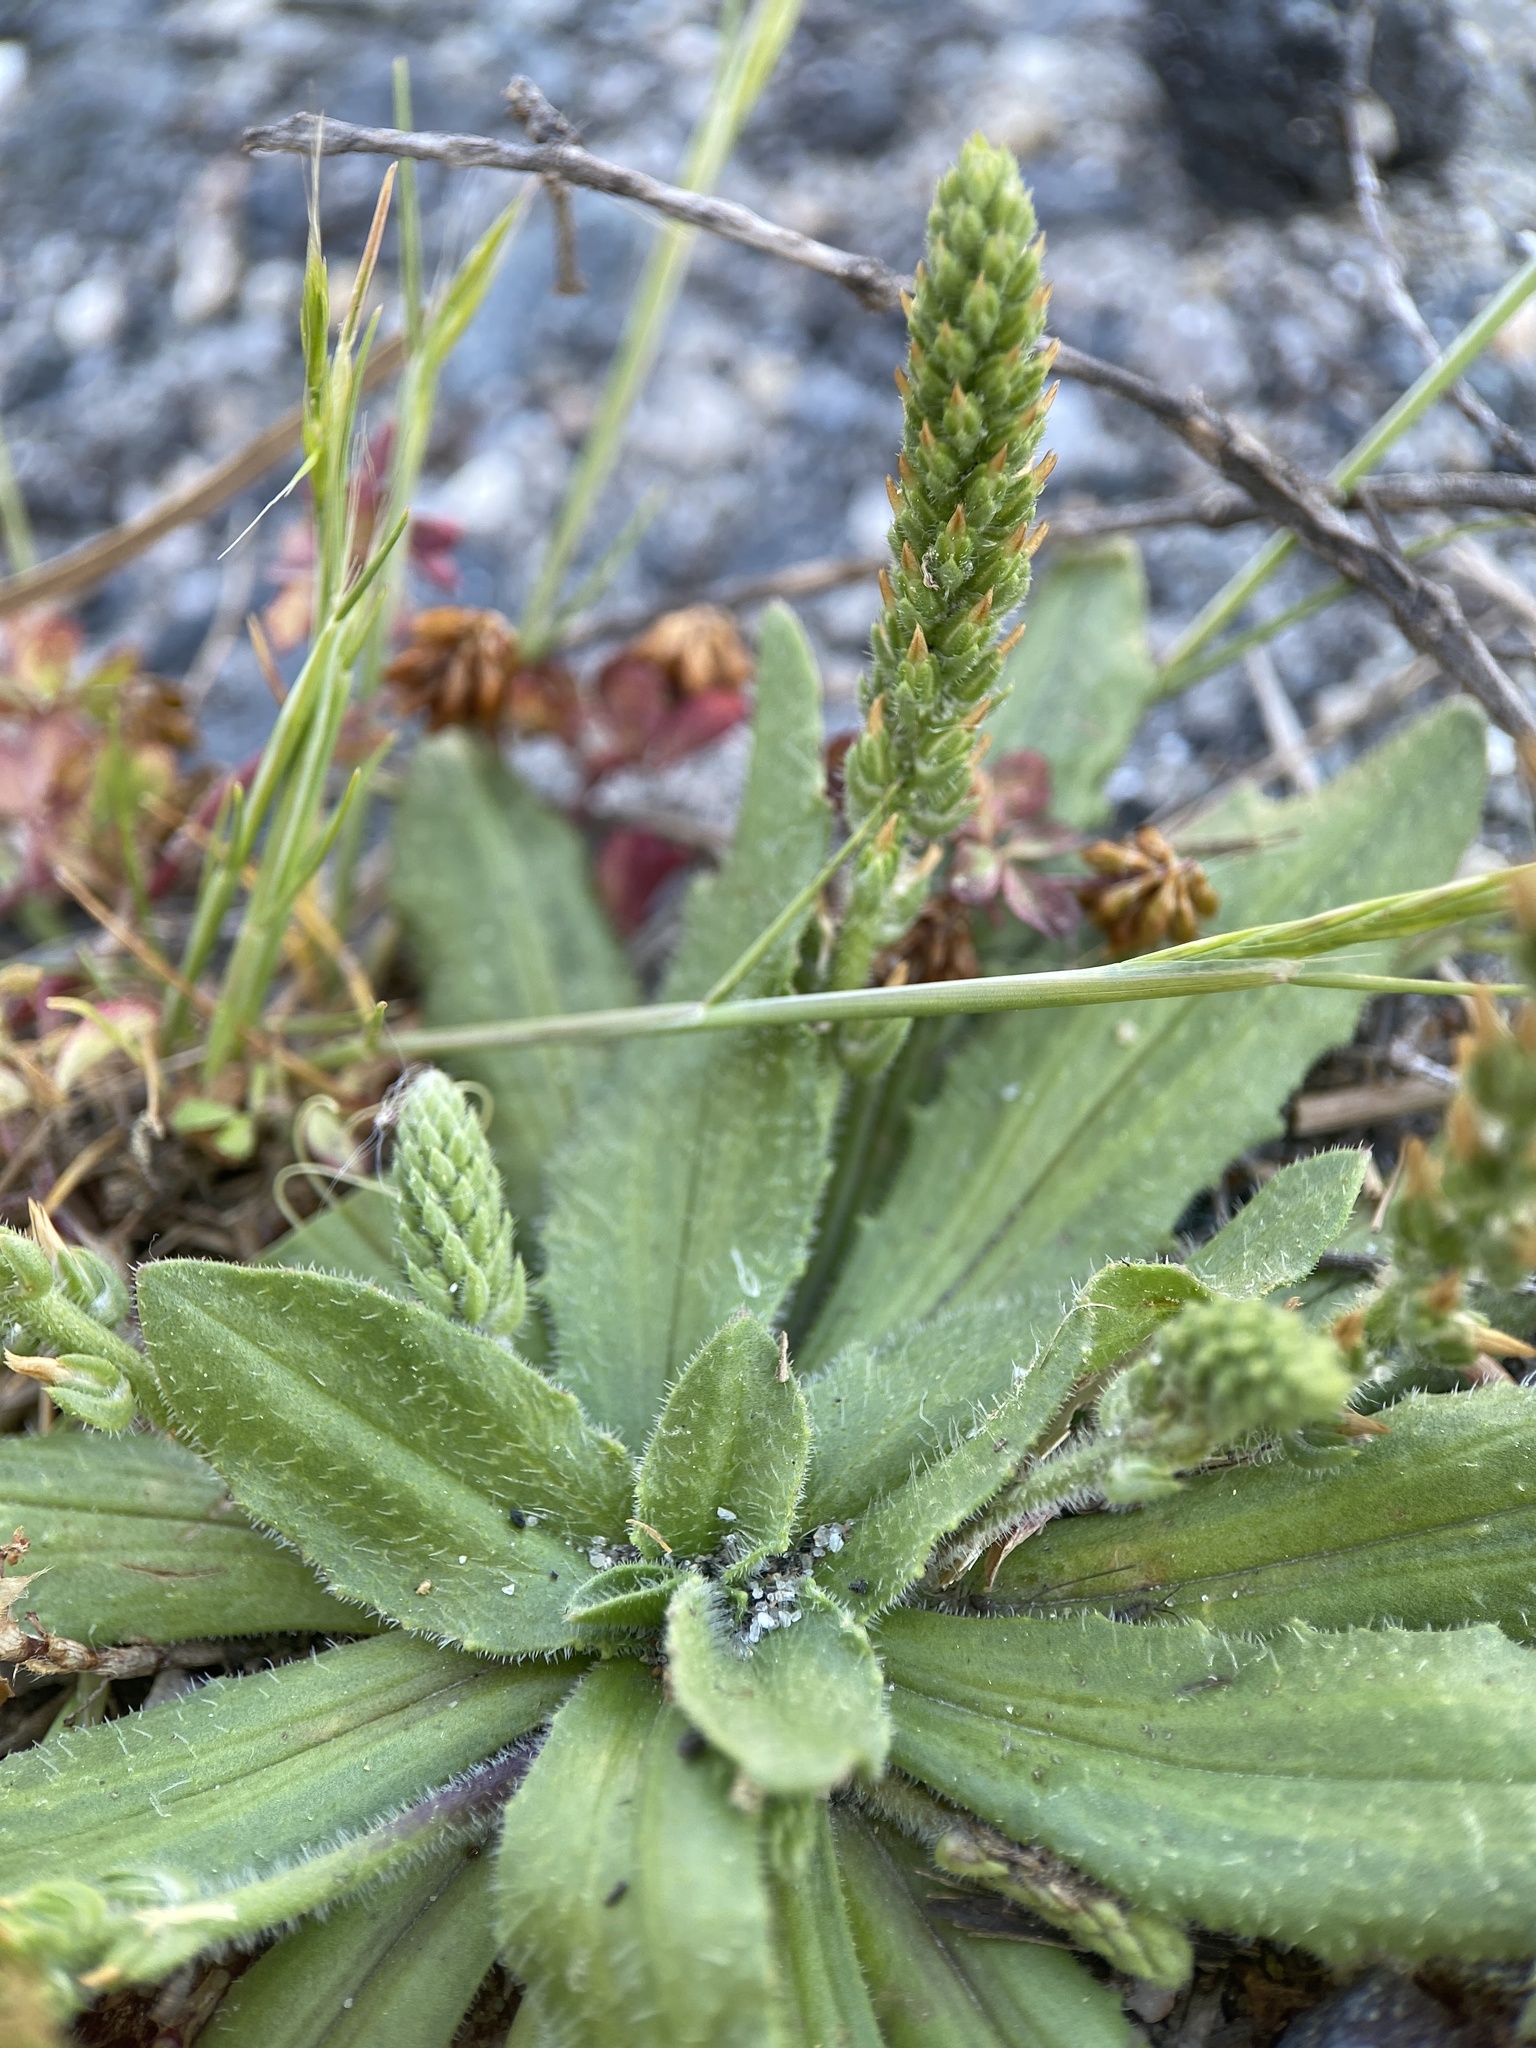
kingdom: Plantae
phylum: Tracheophyta
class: Magnoliopsida
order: Lamiales
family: Plantaginaceae
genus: Plantago
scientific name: Plantago virginica
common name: Hoary plantain
